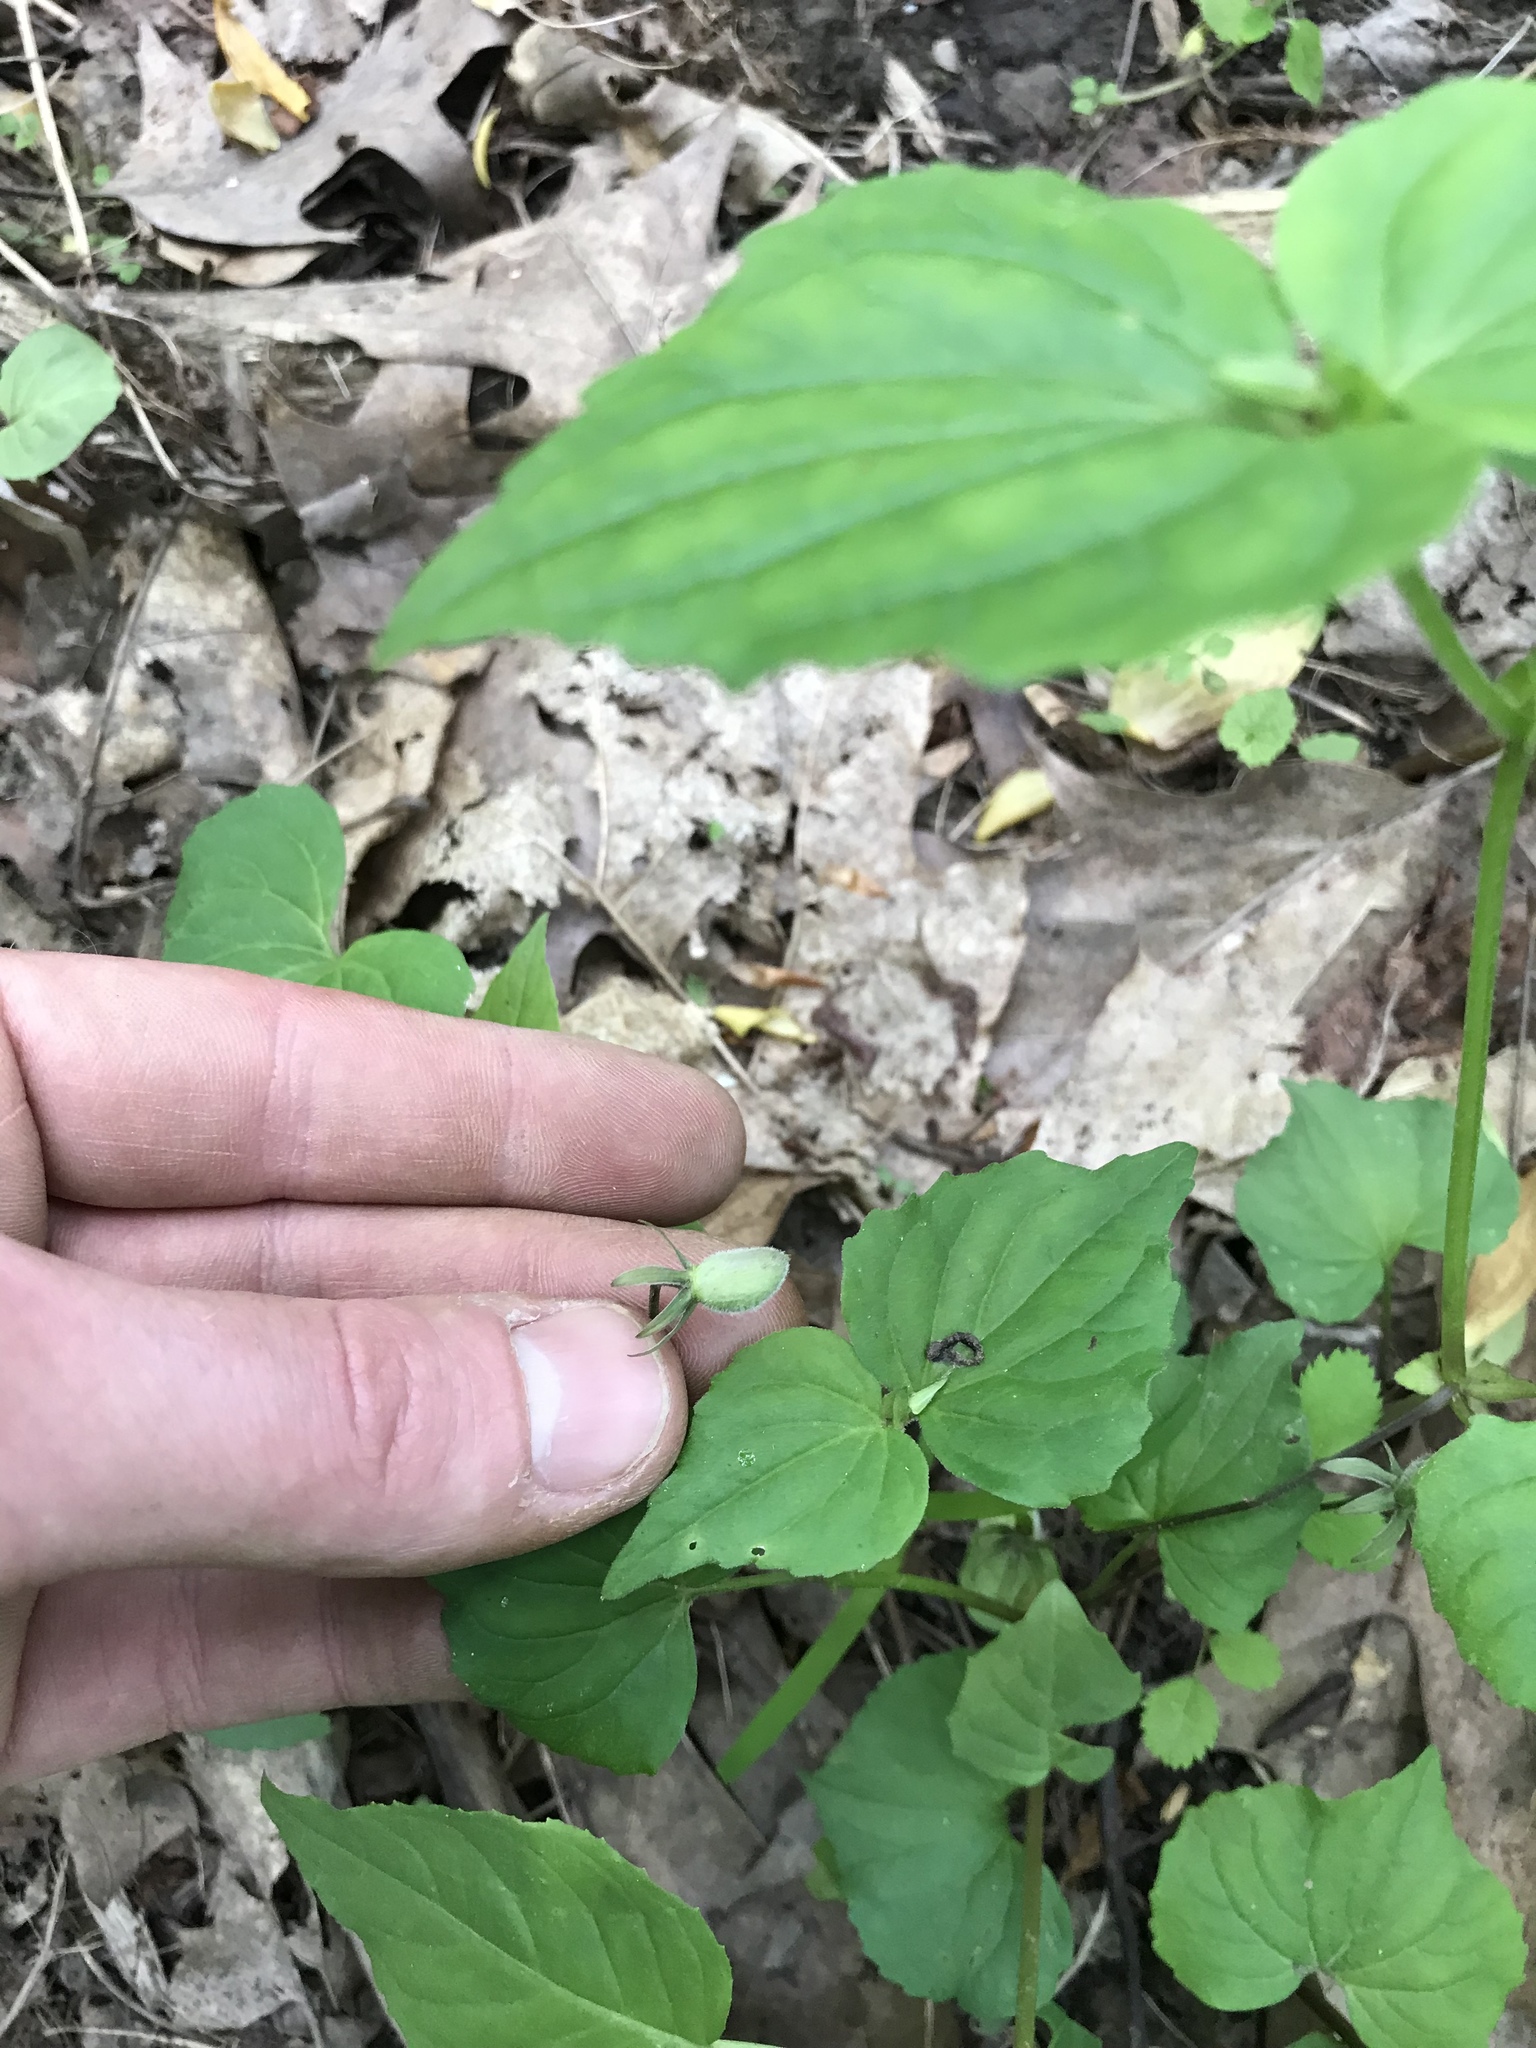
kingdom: Plantae
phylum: Tracheophyta
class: Magnoliopsida
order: Malpighiales
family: Violaceae
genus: Viola
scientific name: Viola eriocarpa
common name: Smooth yellow violet
